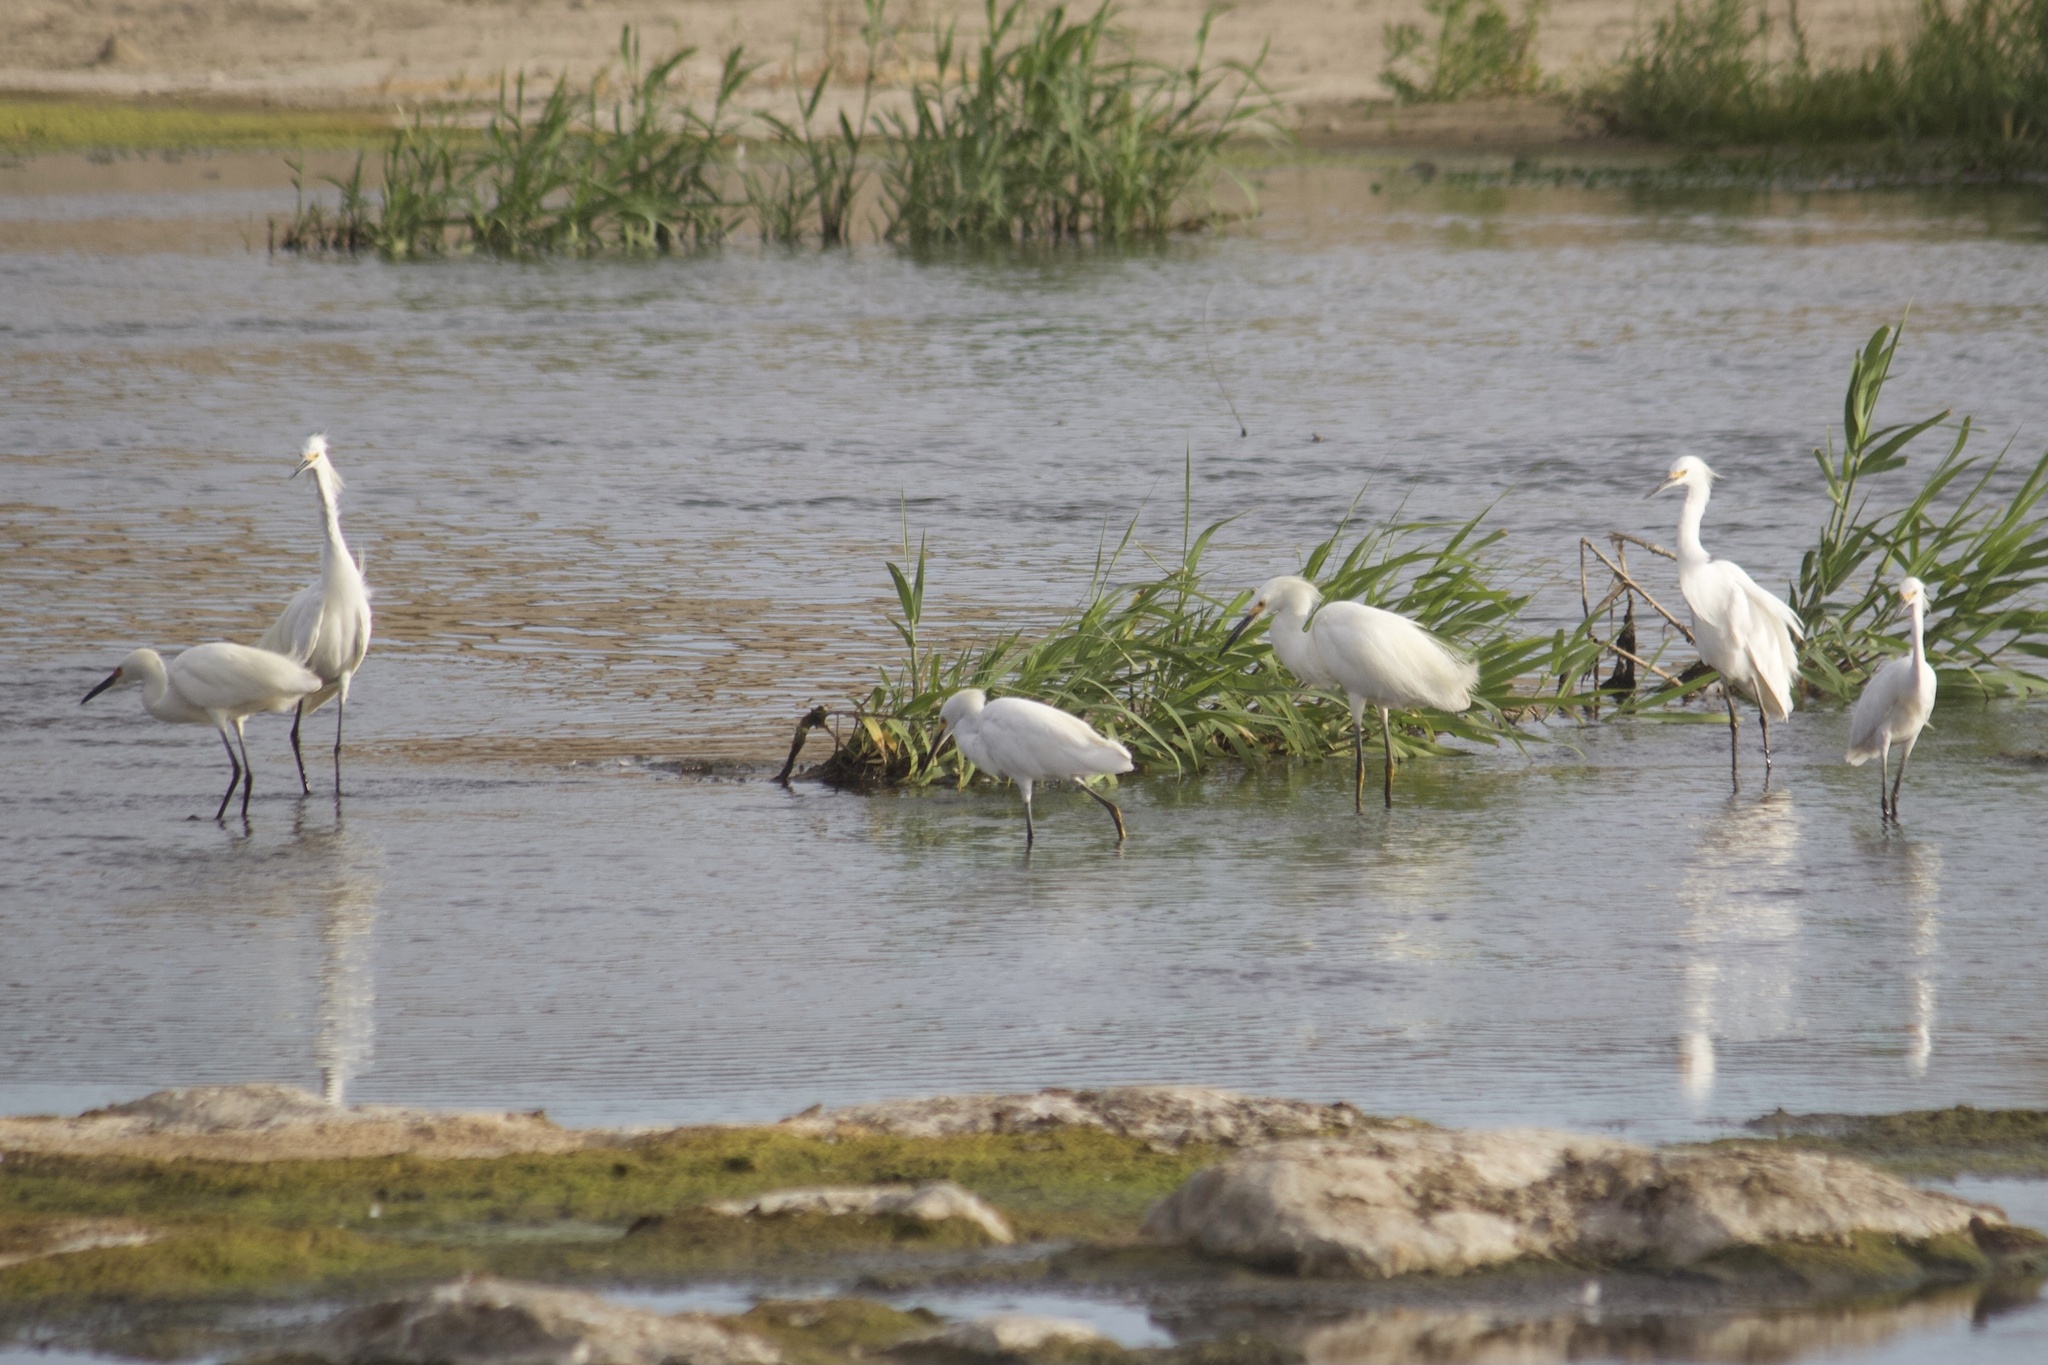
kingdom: Animalia
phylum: Chordata
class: Aves
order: Pelecaniformes
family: Ardeidae
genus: Egretta
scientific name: Egretta thula
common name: Snowy egret
